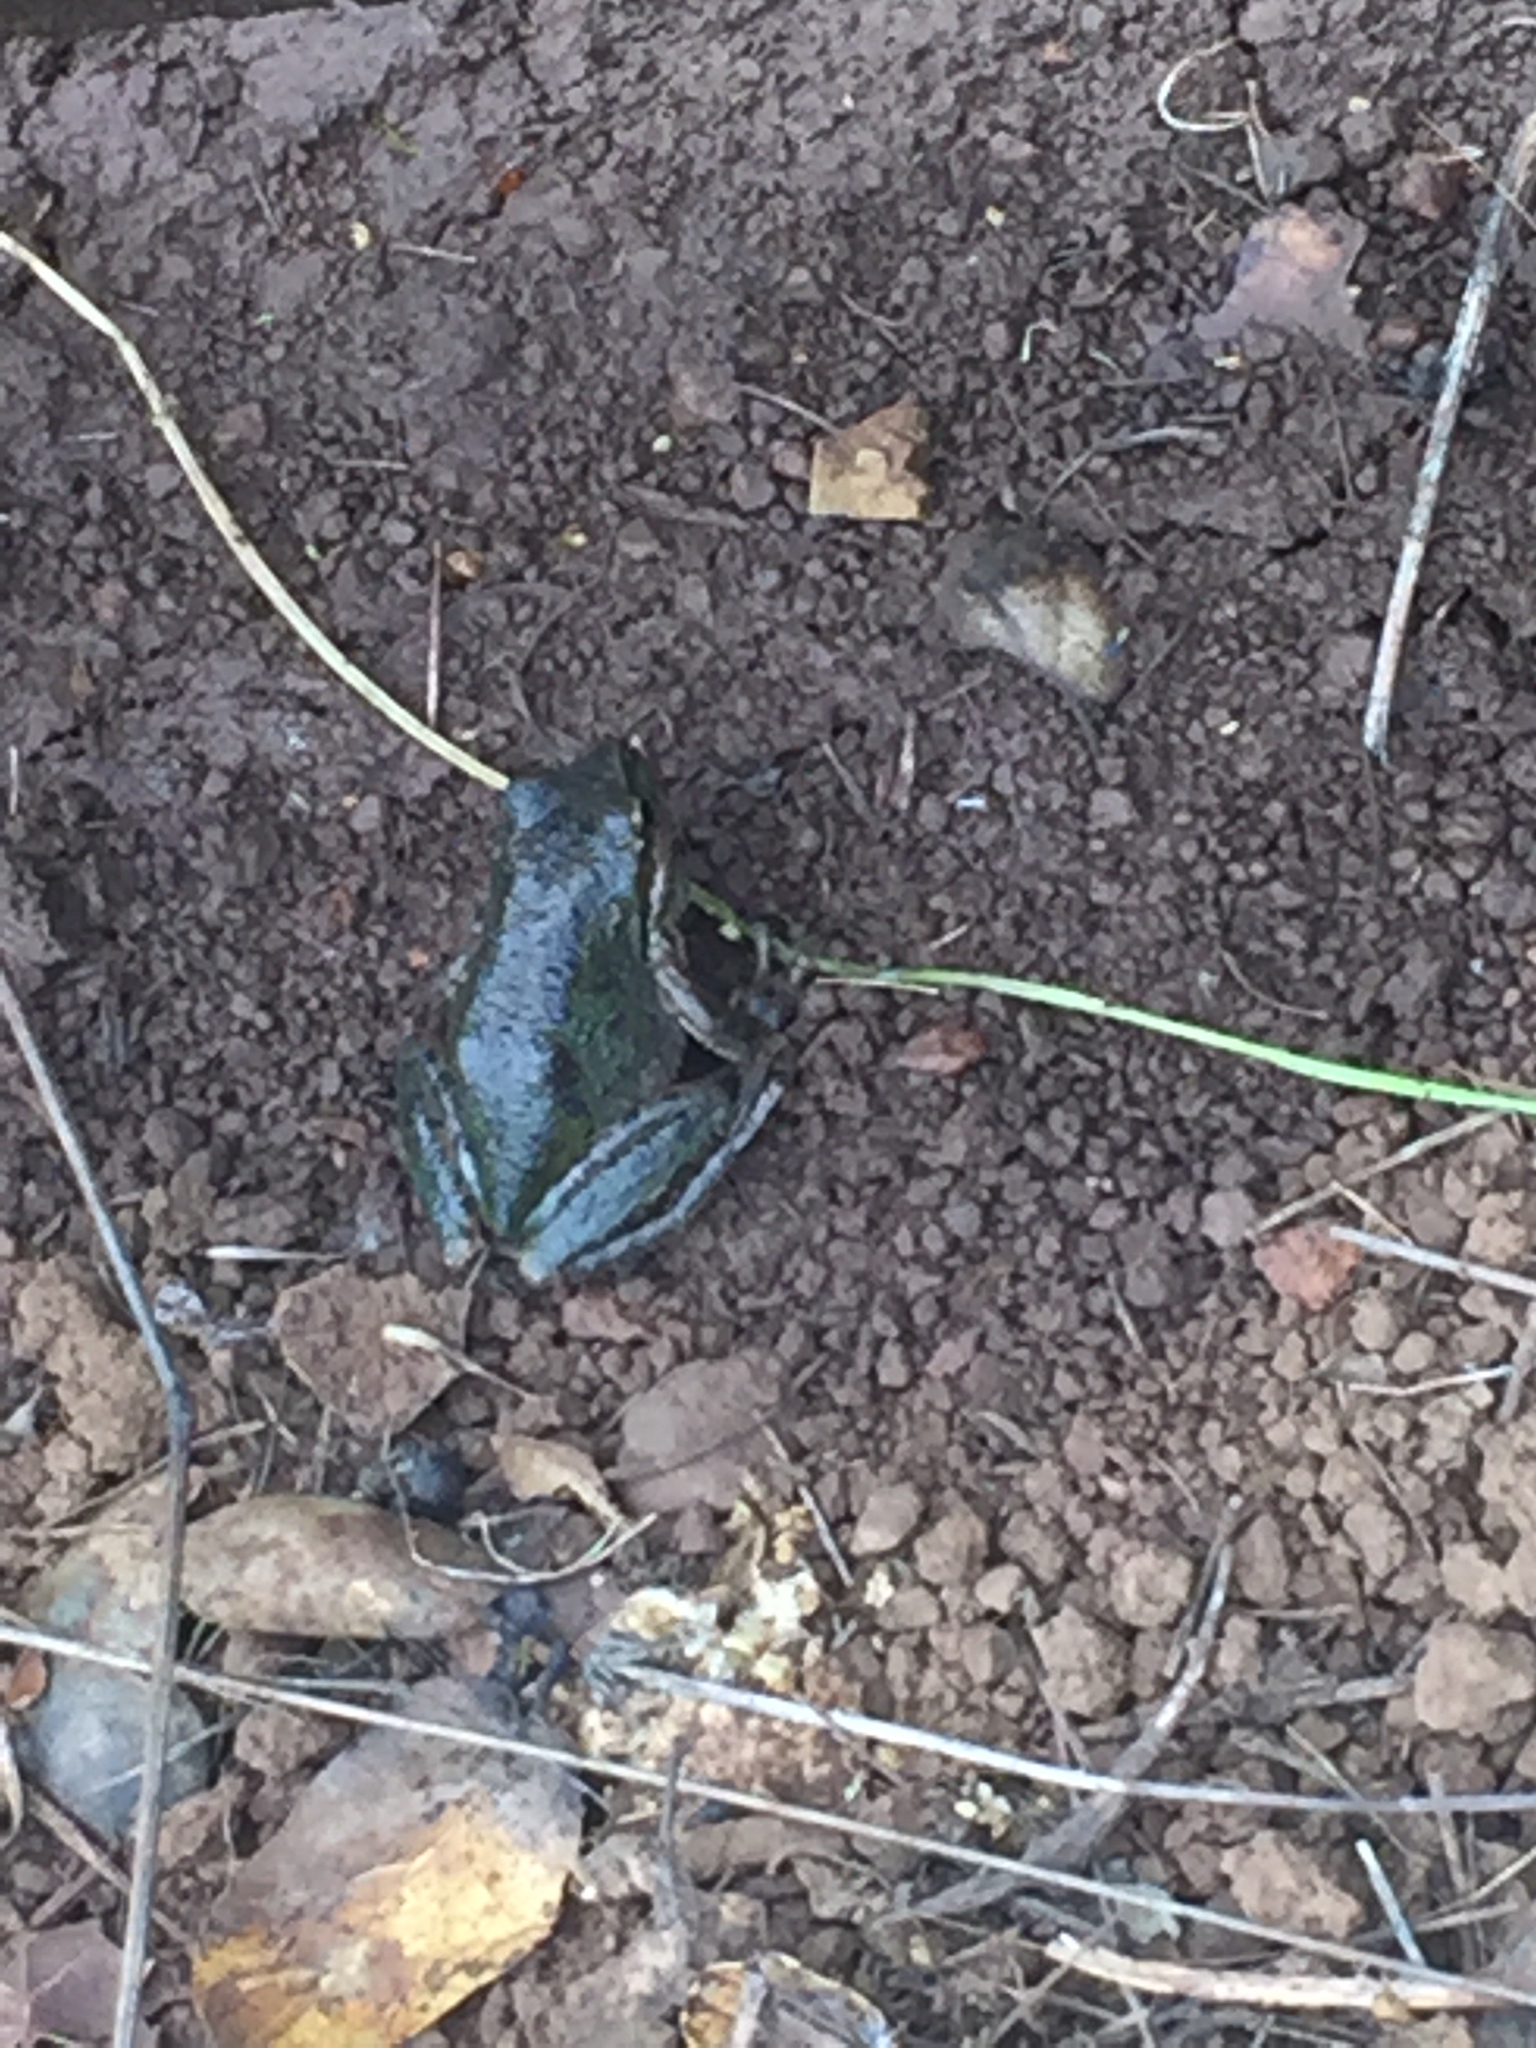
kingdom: Animalia
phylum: Chordata
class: Amphibia
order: Anura
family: Hylidae
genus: Pseudacris
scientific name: Pseudacris regilla
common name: Pacific chorus frog
